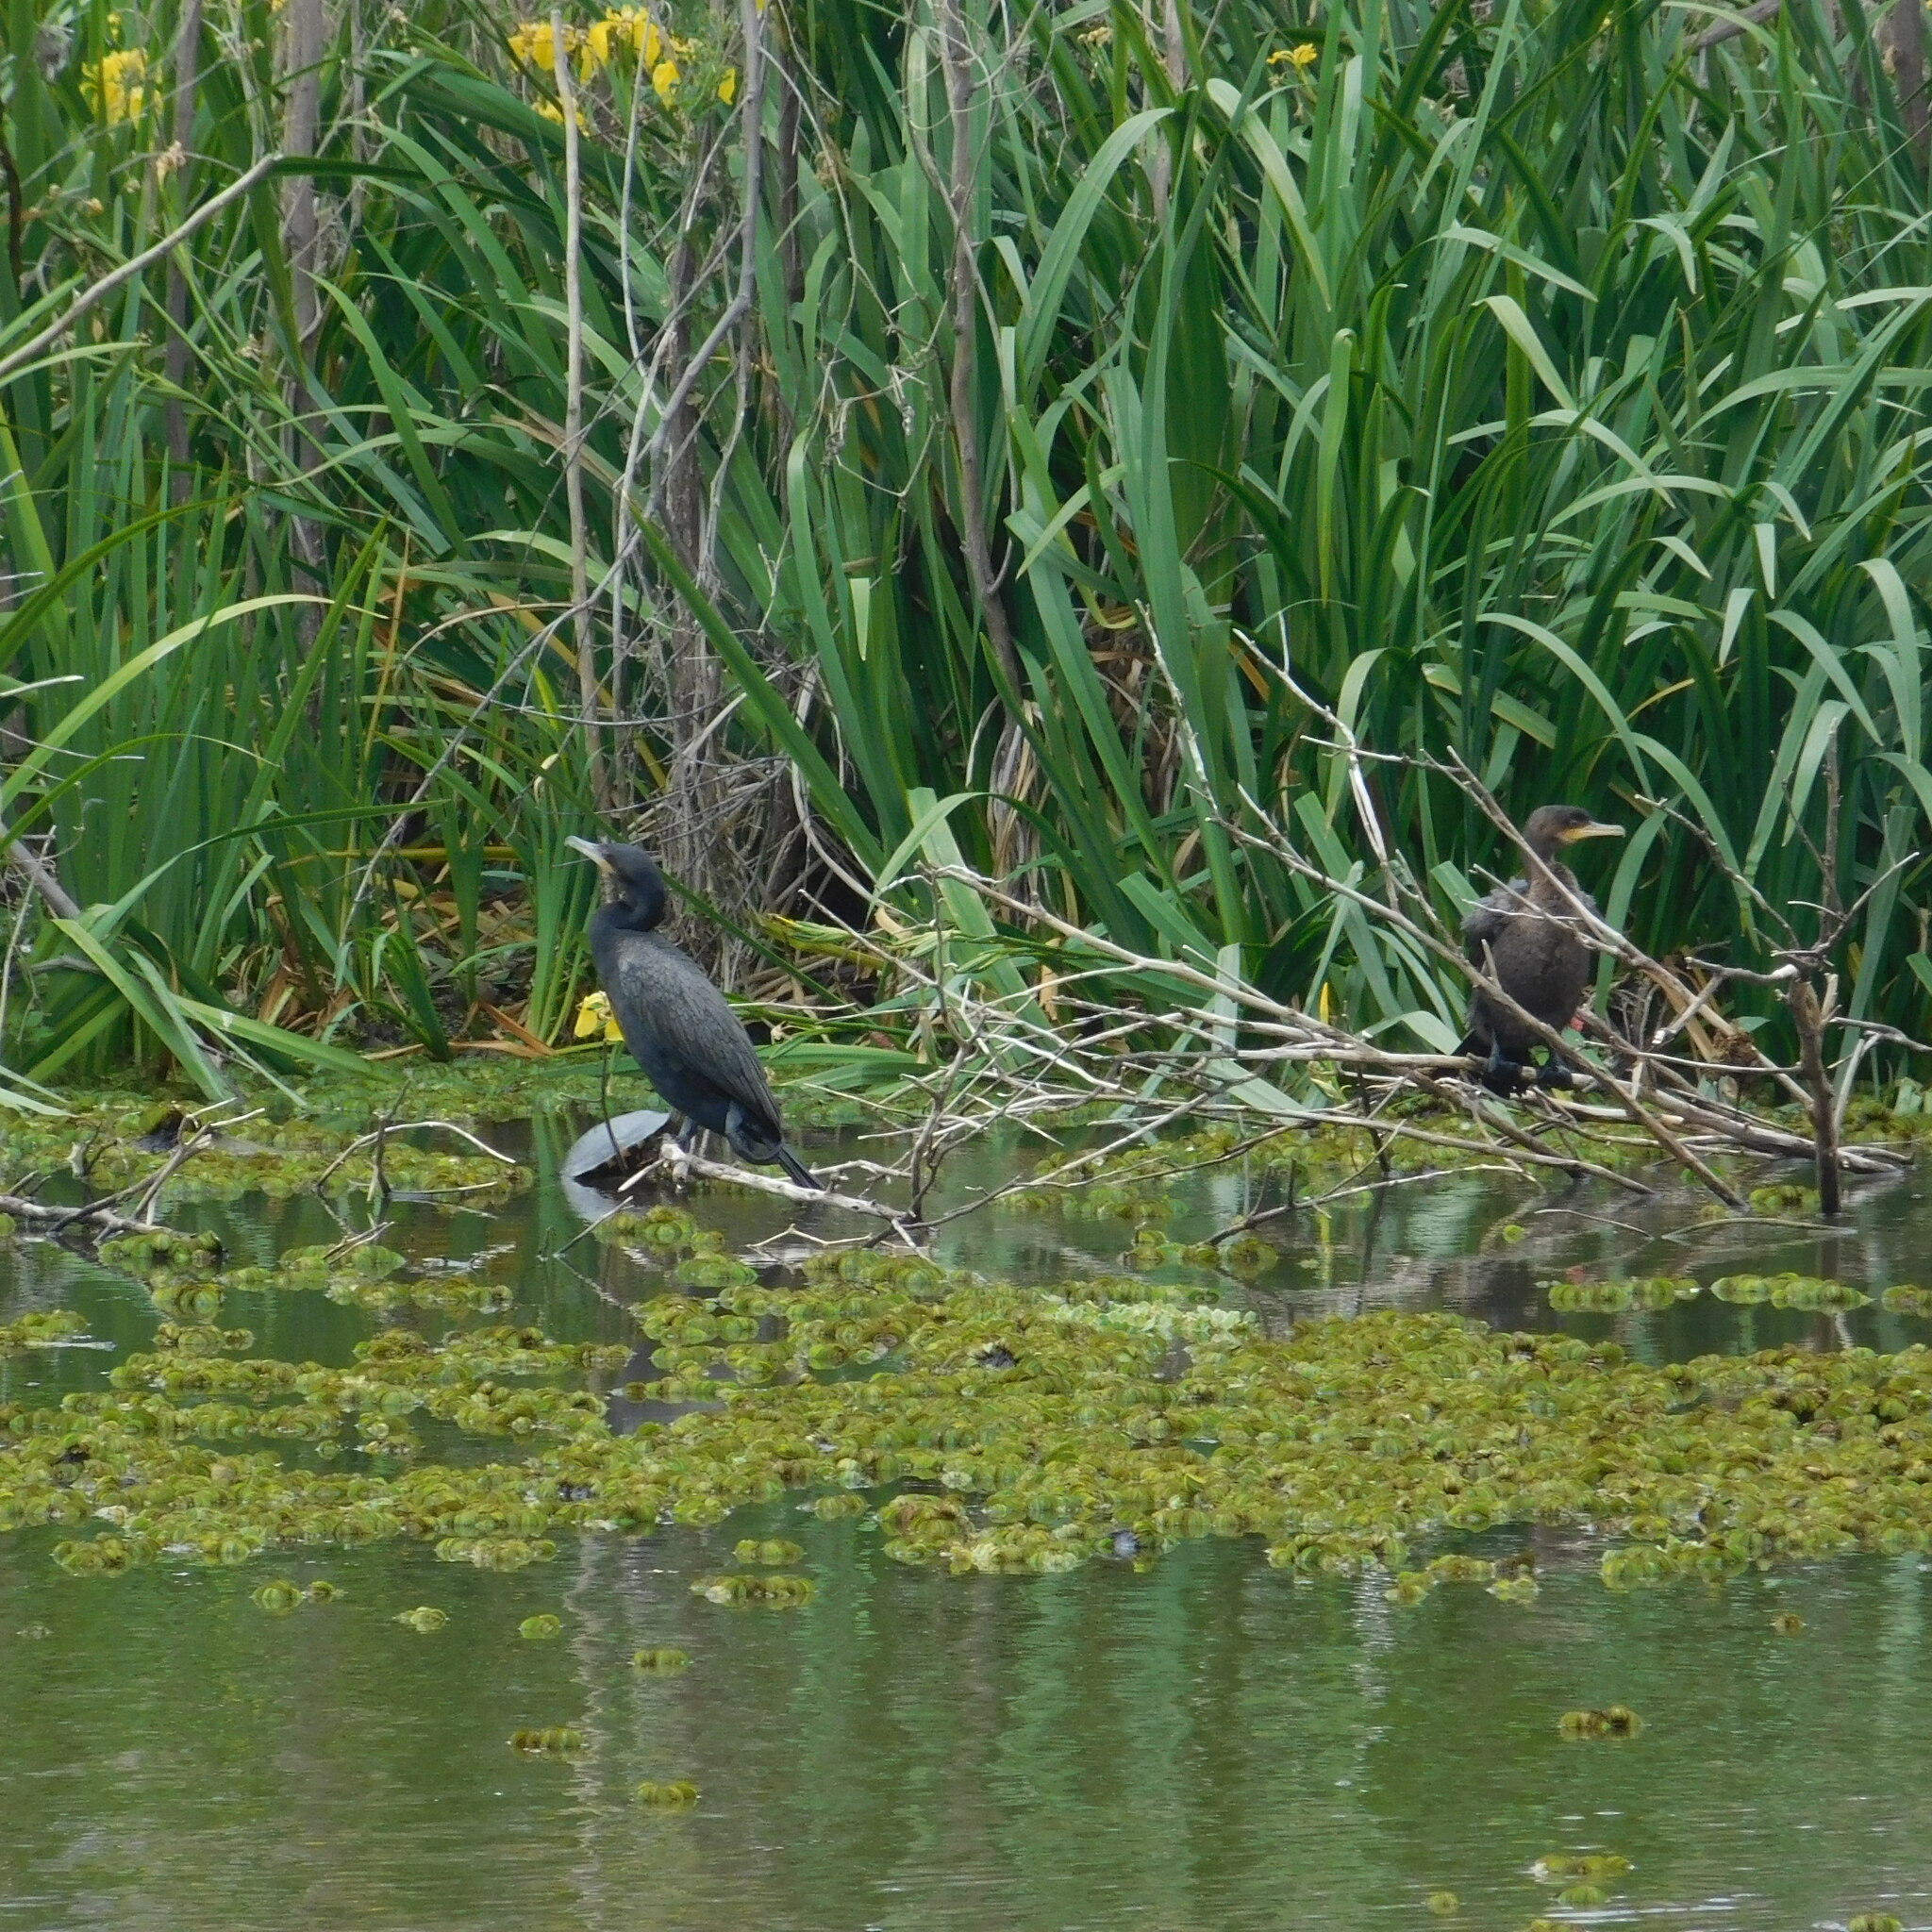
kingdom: Animalia
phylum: Chordata
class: Aves
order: Suliformes
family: Phalacrocoracidae
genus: Phalacrocorax
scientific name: Phalacrocorax brasilianus
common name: Neotropic cormorant
